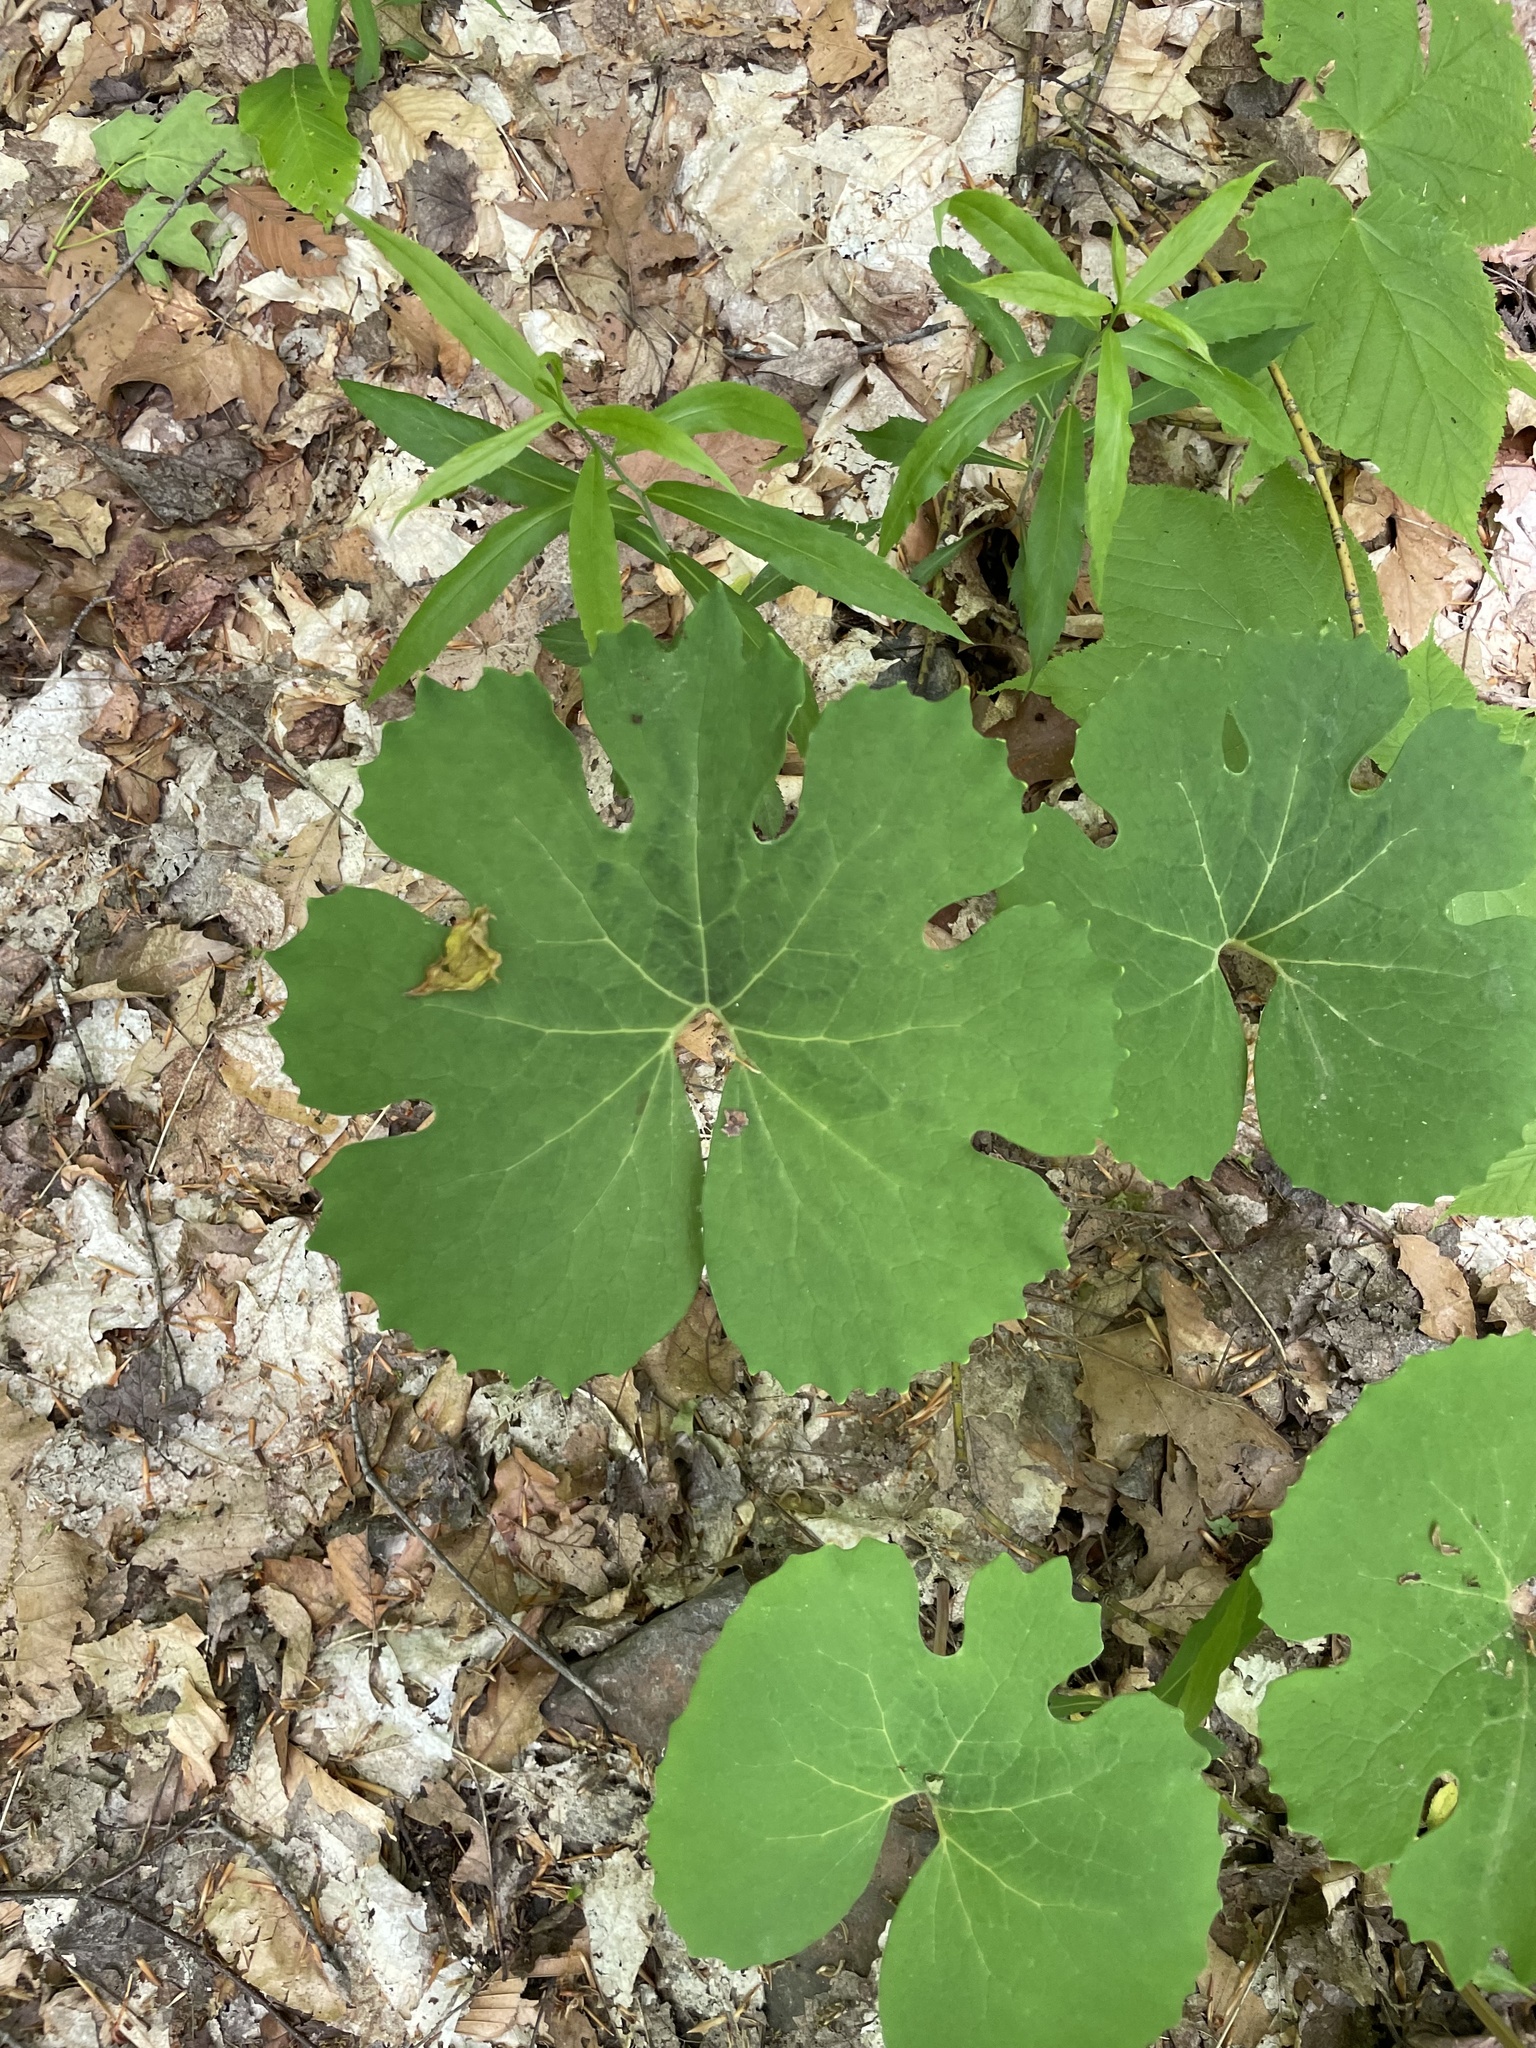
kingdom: Plantae
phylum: Tracheophyta
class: Magnoliopsida
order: Ranunculales
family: Papaveraceae
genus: Sanguinaria
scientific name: Sanguinaria canadensis
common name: Bloodroot
